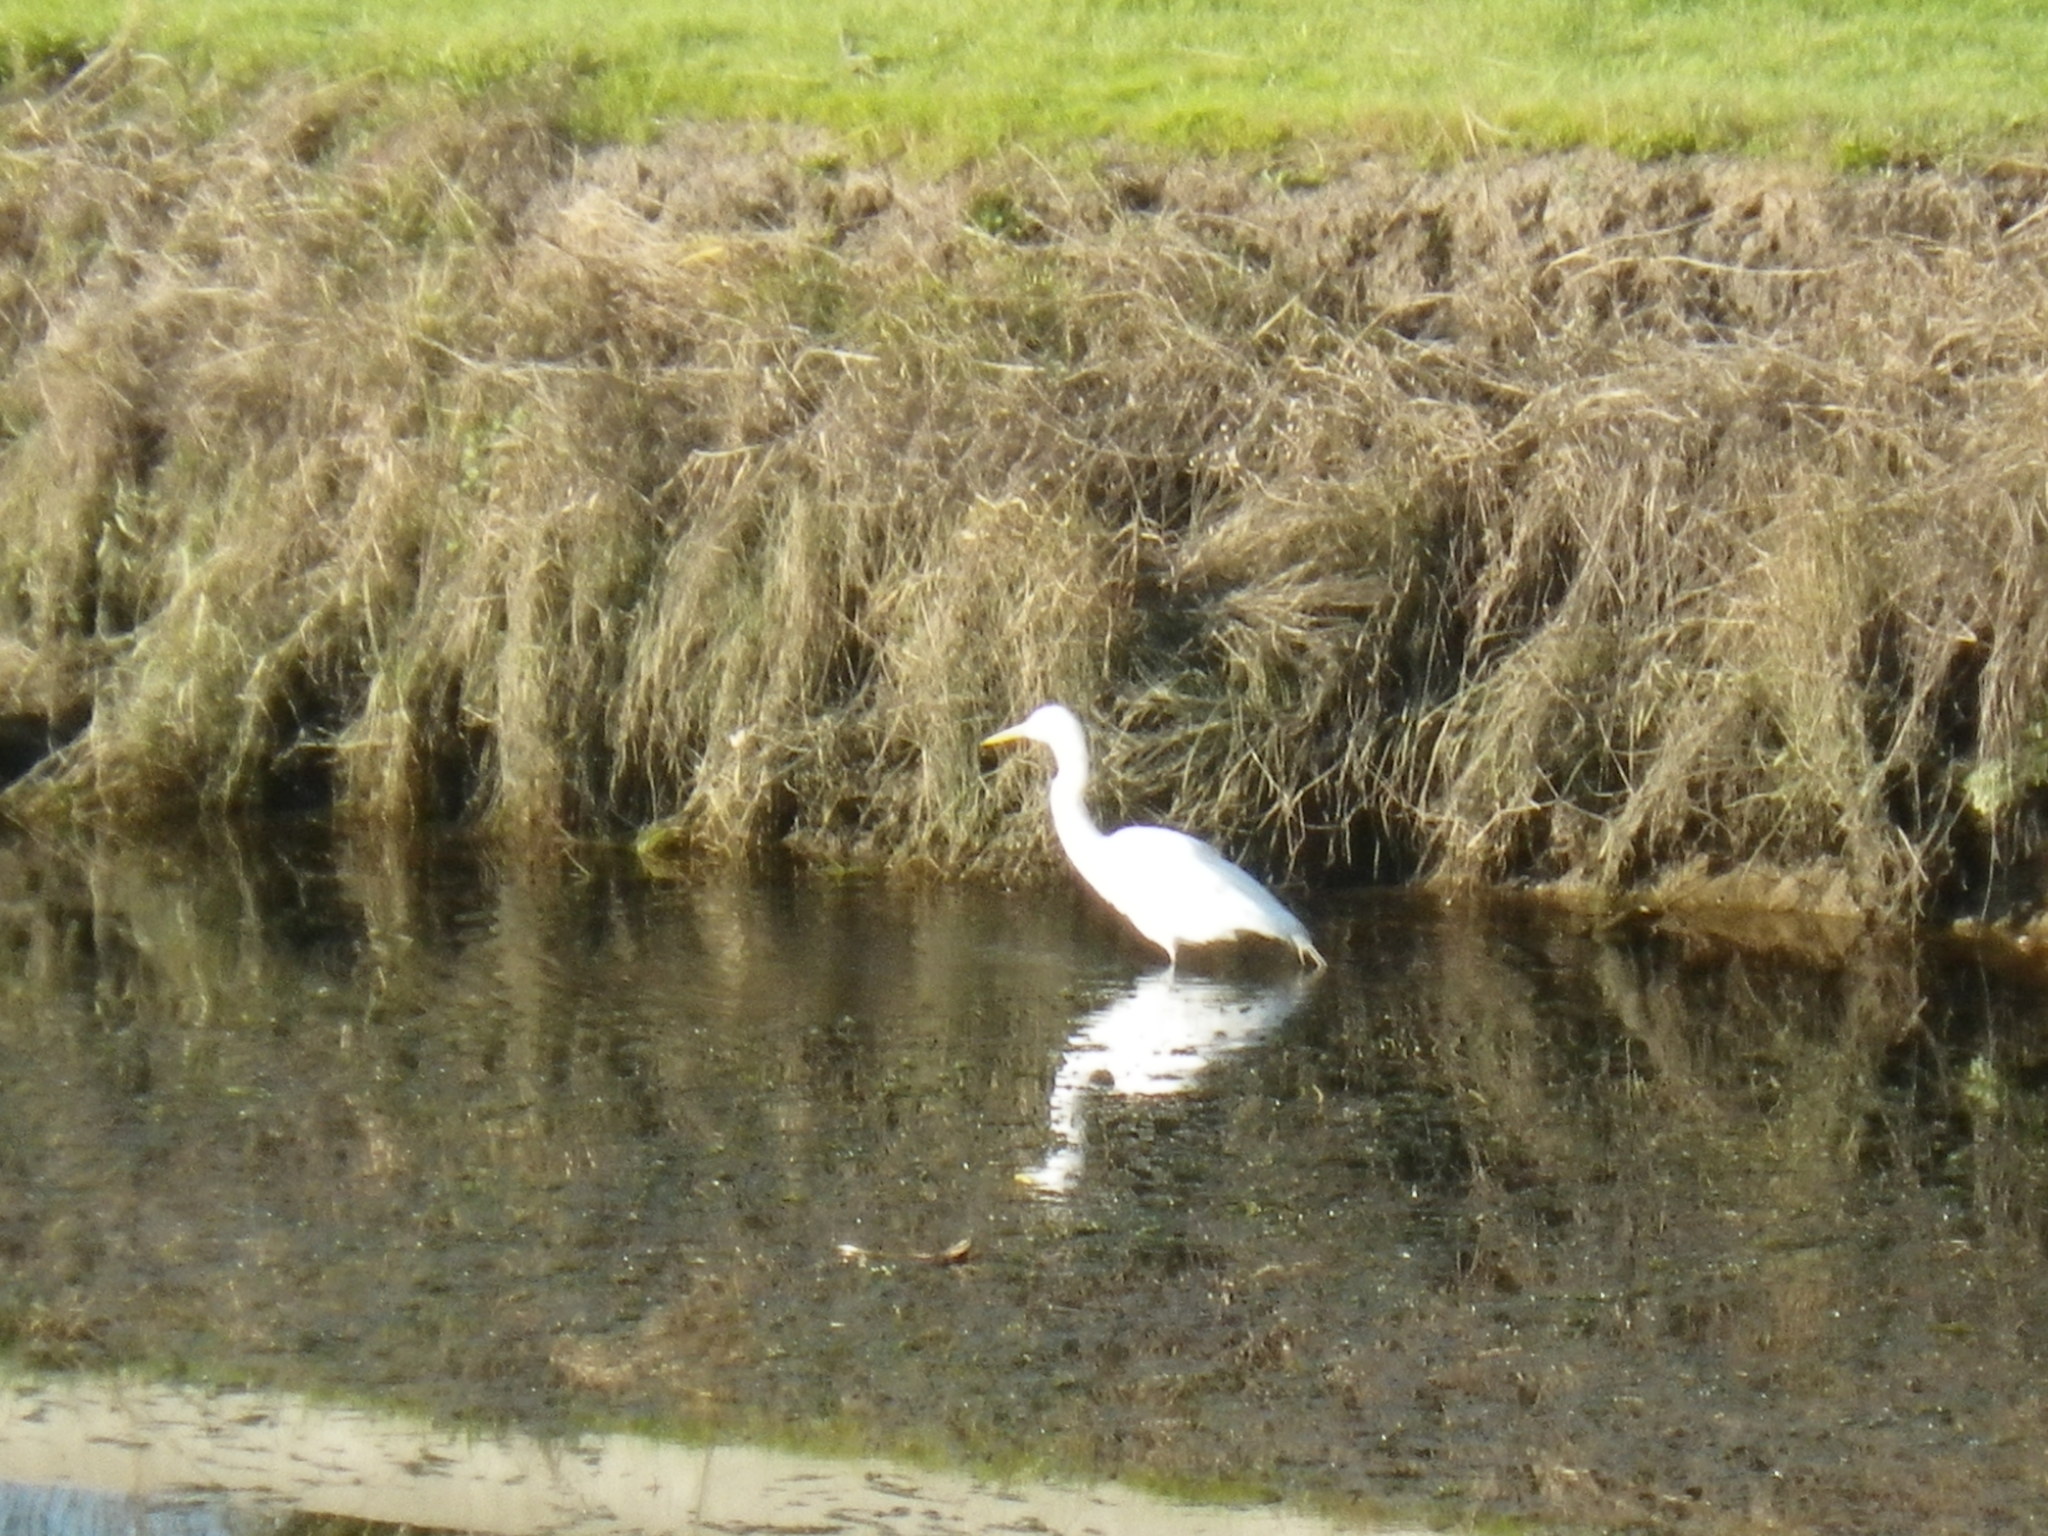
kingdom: Animalia
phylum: Chordata
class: Aves
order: Pelecaniformes
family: Ardeidae
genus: Ardea
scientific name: Ardea alba
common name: Great egret
